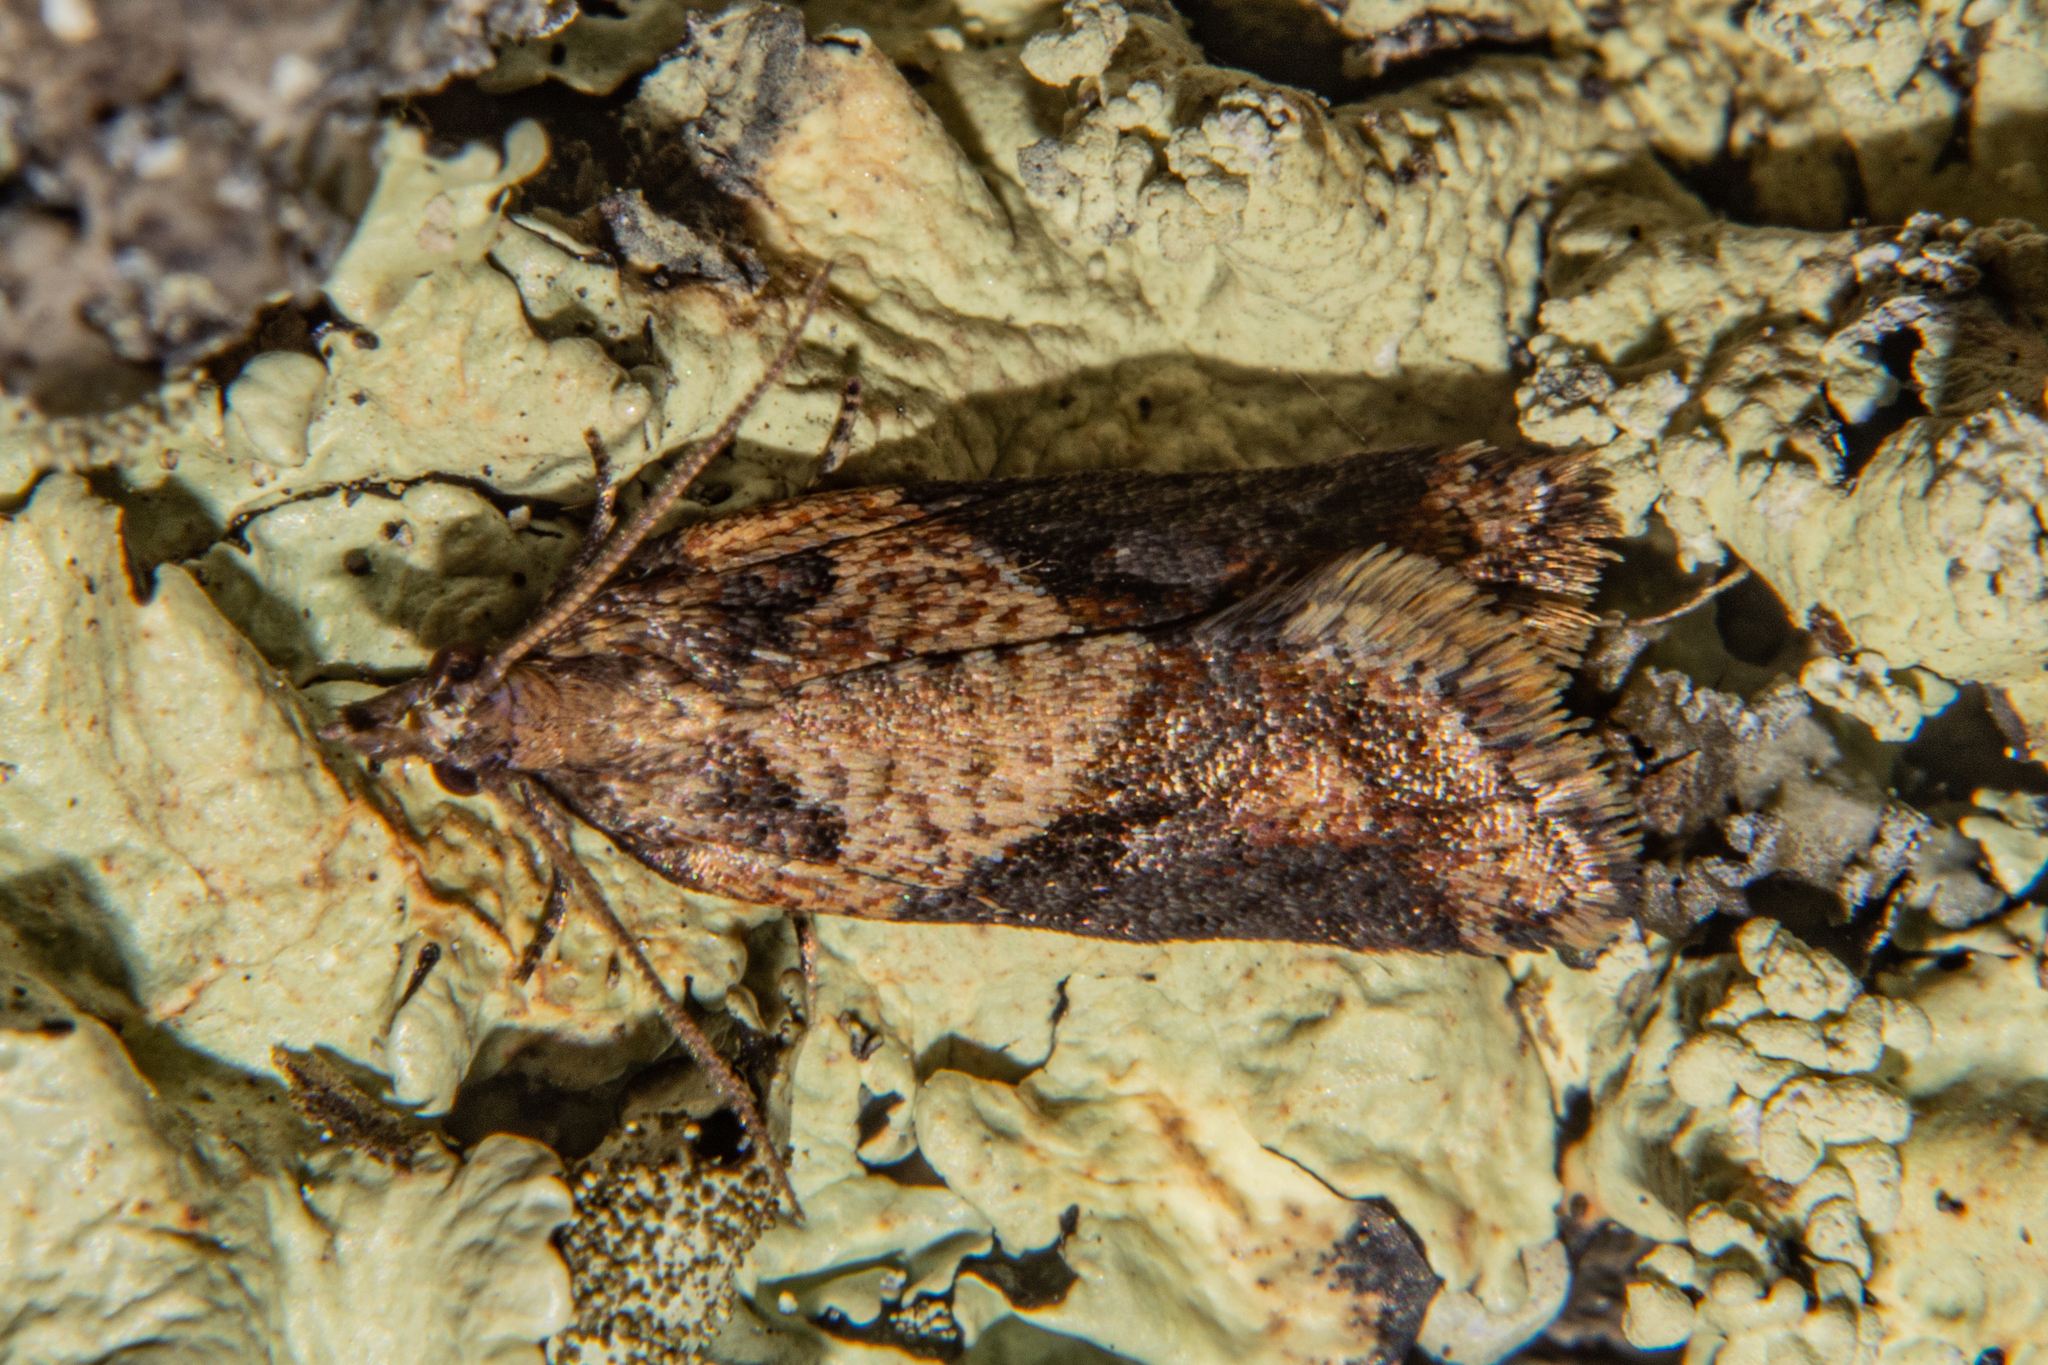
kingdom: Animalia
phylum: Arthropoda
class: Insecta
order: Lepidoptera
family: Tortricidae
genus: Capua
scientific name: Capua semiferana
